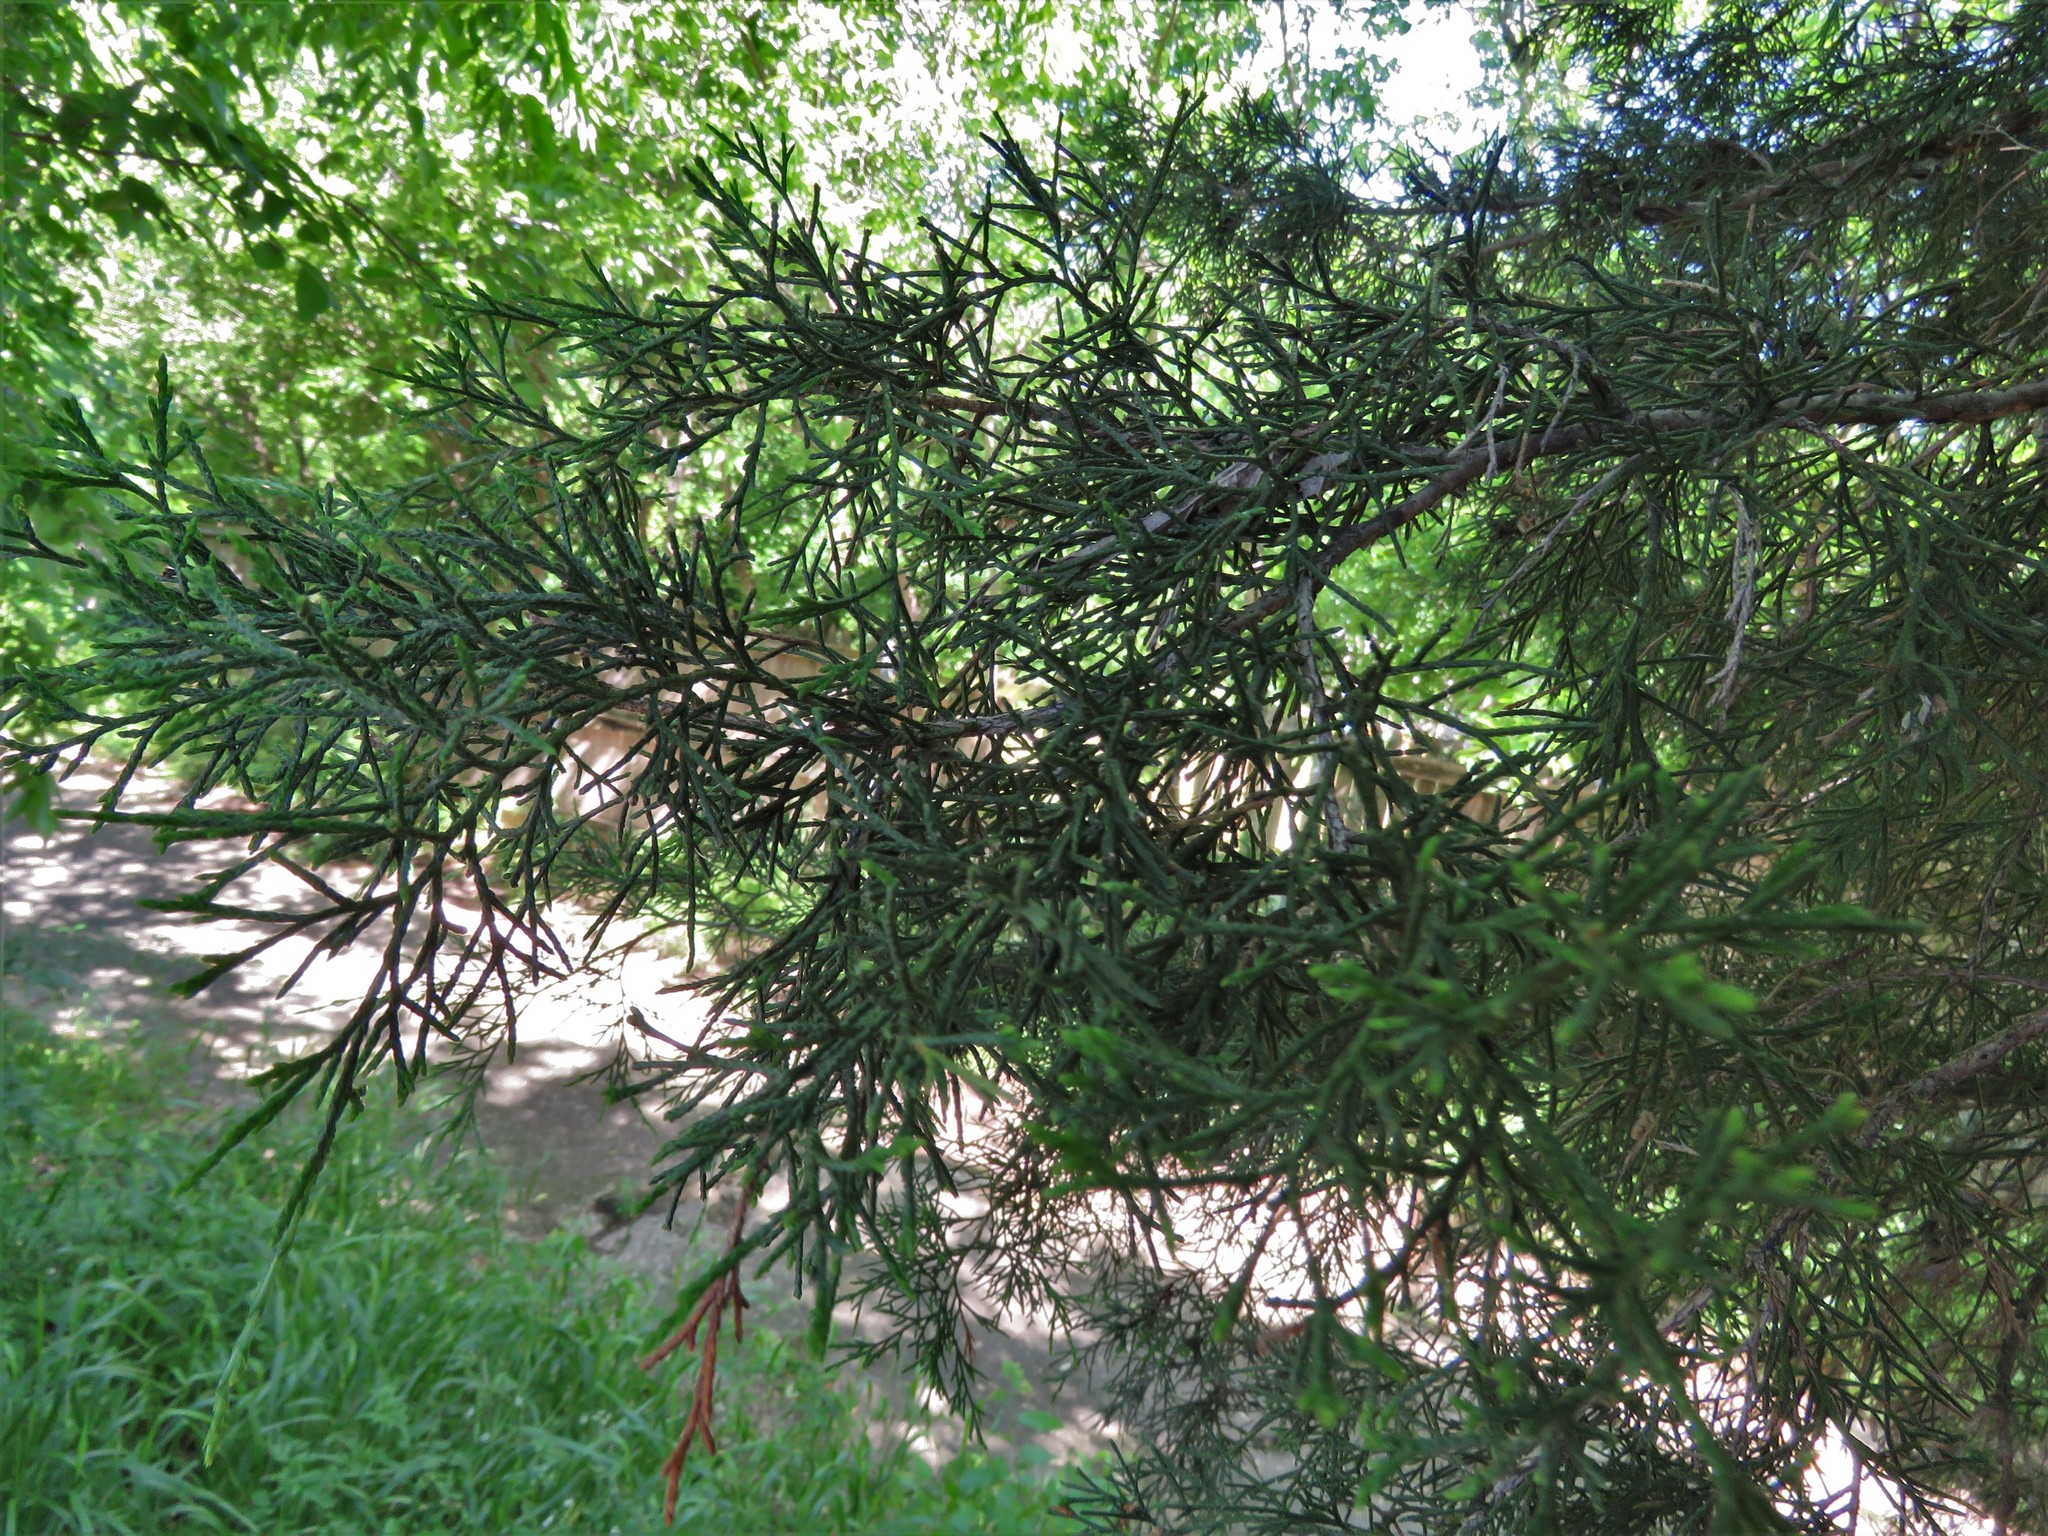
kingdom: Plantae
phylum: Tracheophyta
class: Pinopsida
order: Pinales
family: Cupressaceae
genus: Juniperus
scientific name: Juniperus virginiana
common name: Red juniper
